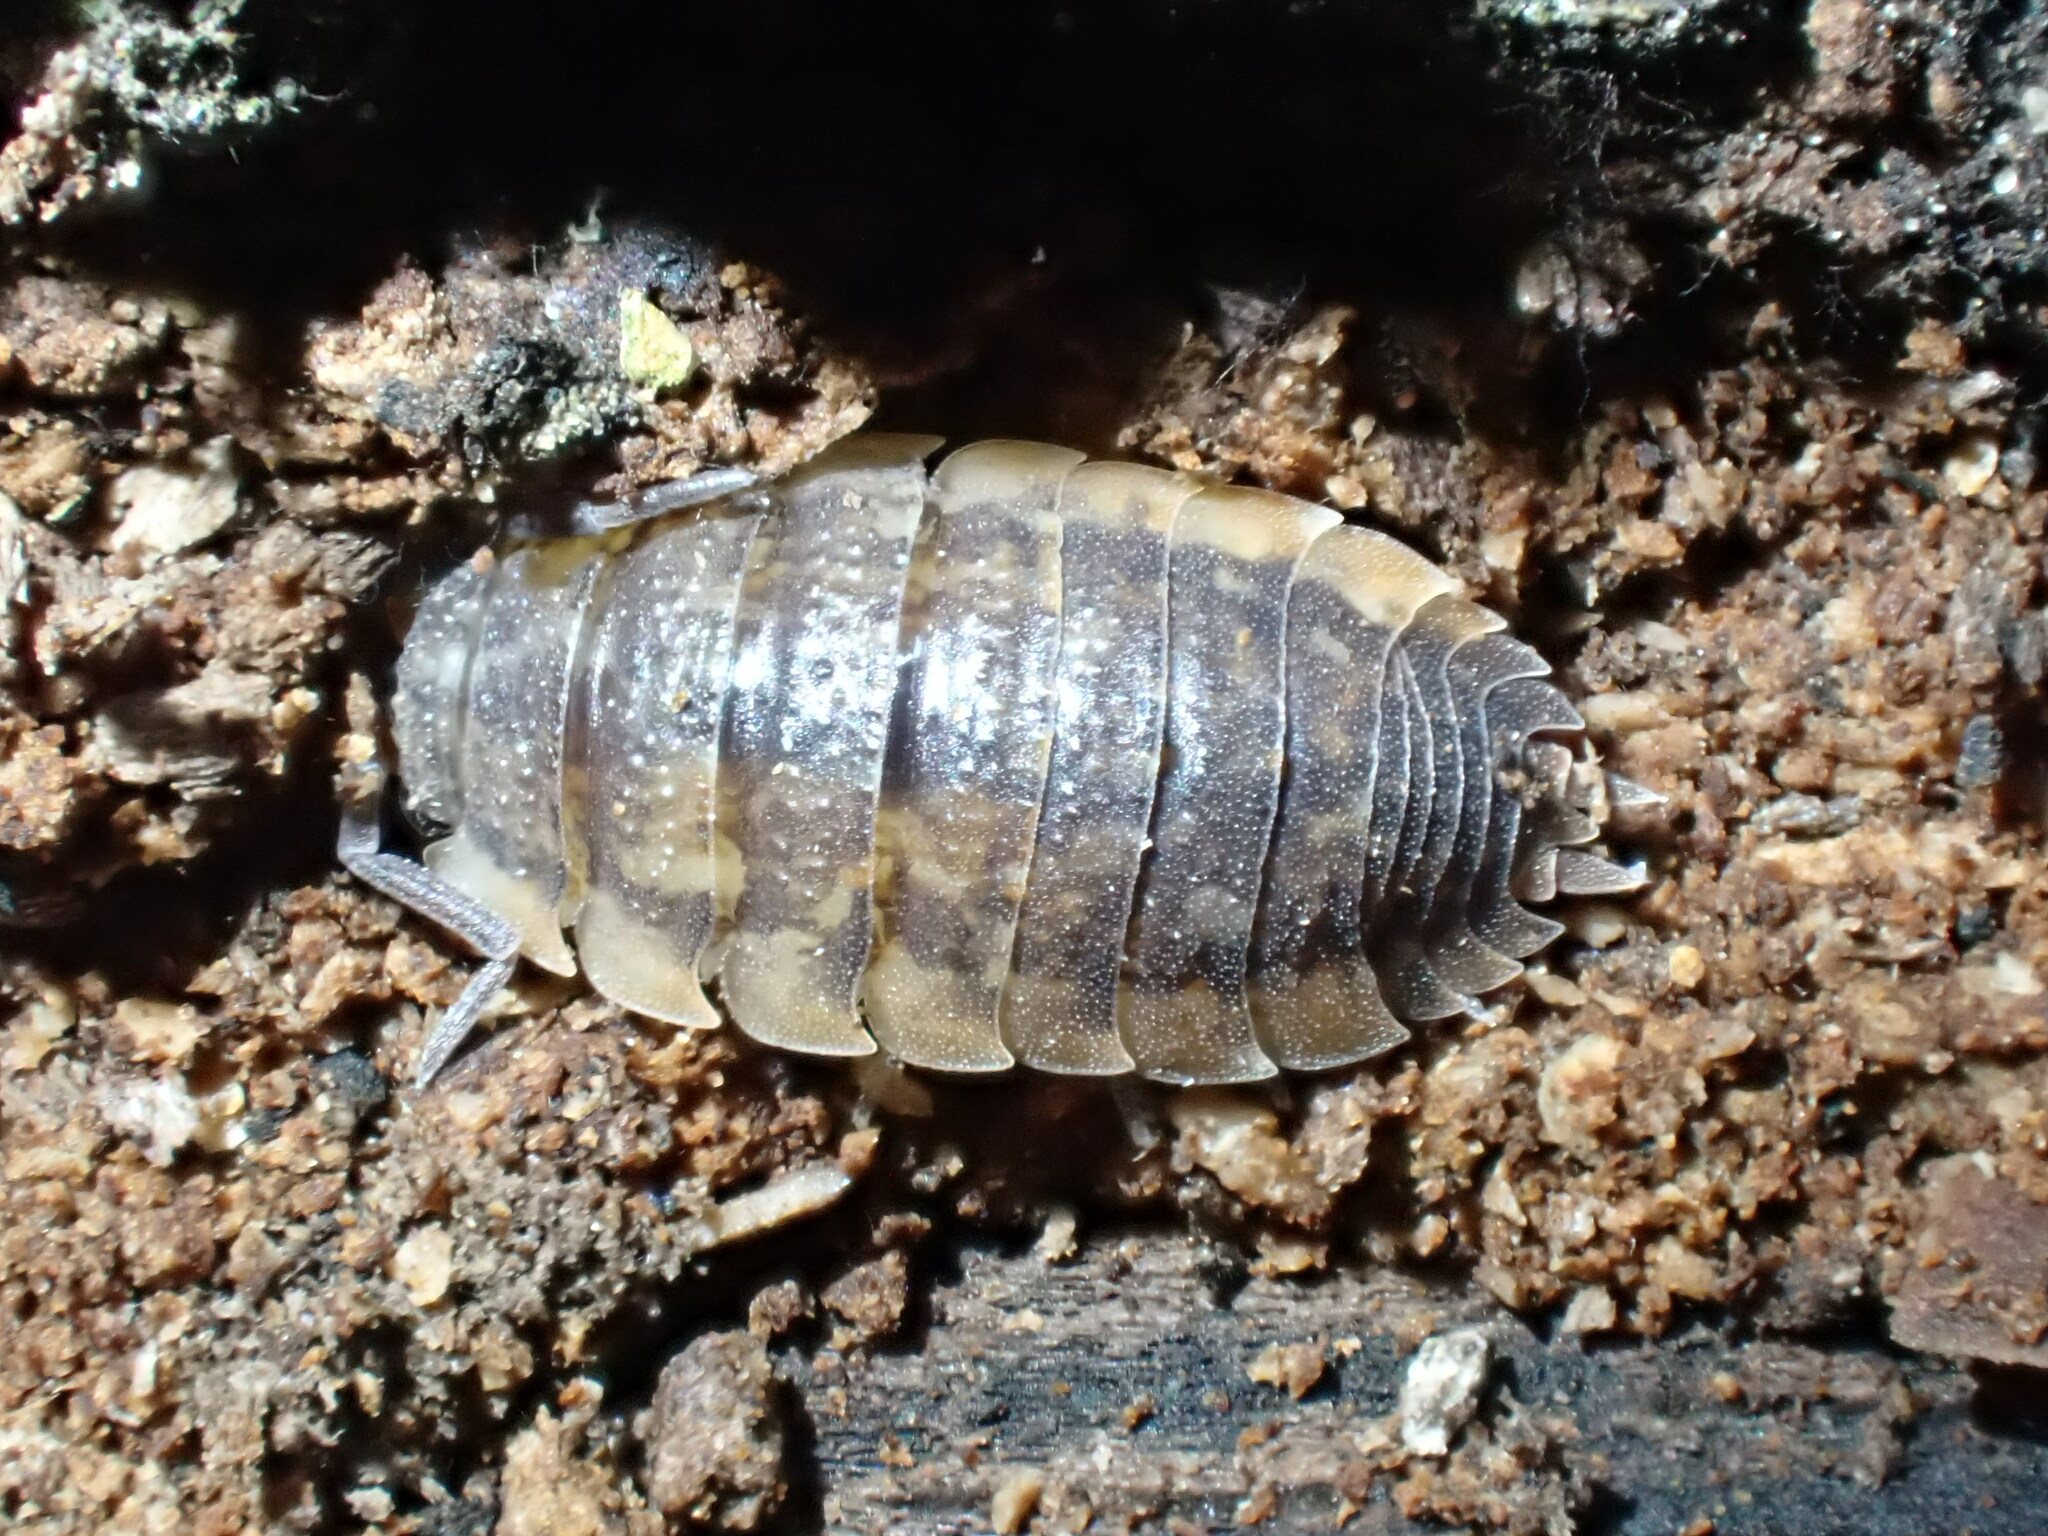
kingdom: Animalia
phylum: Arthropoda
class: Malacostraca
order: Isopoda
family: Porcellionidae
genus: Porcellio
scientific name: Porcellio scaber
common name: Common rough woodlouse
